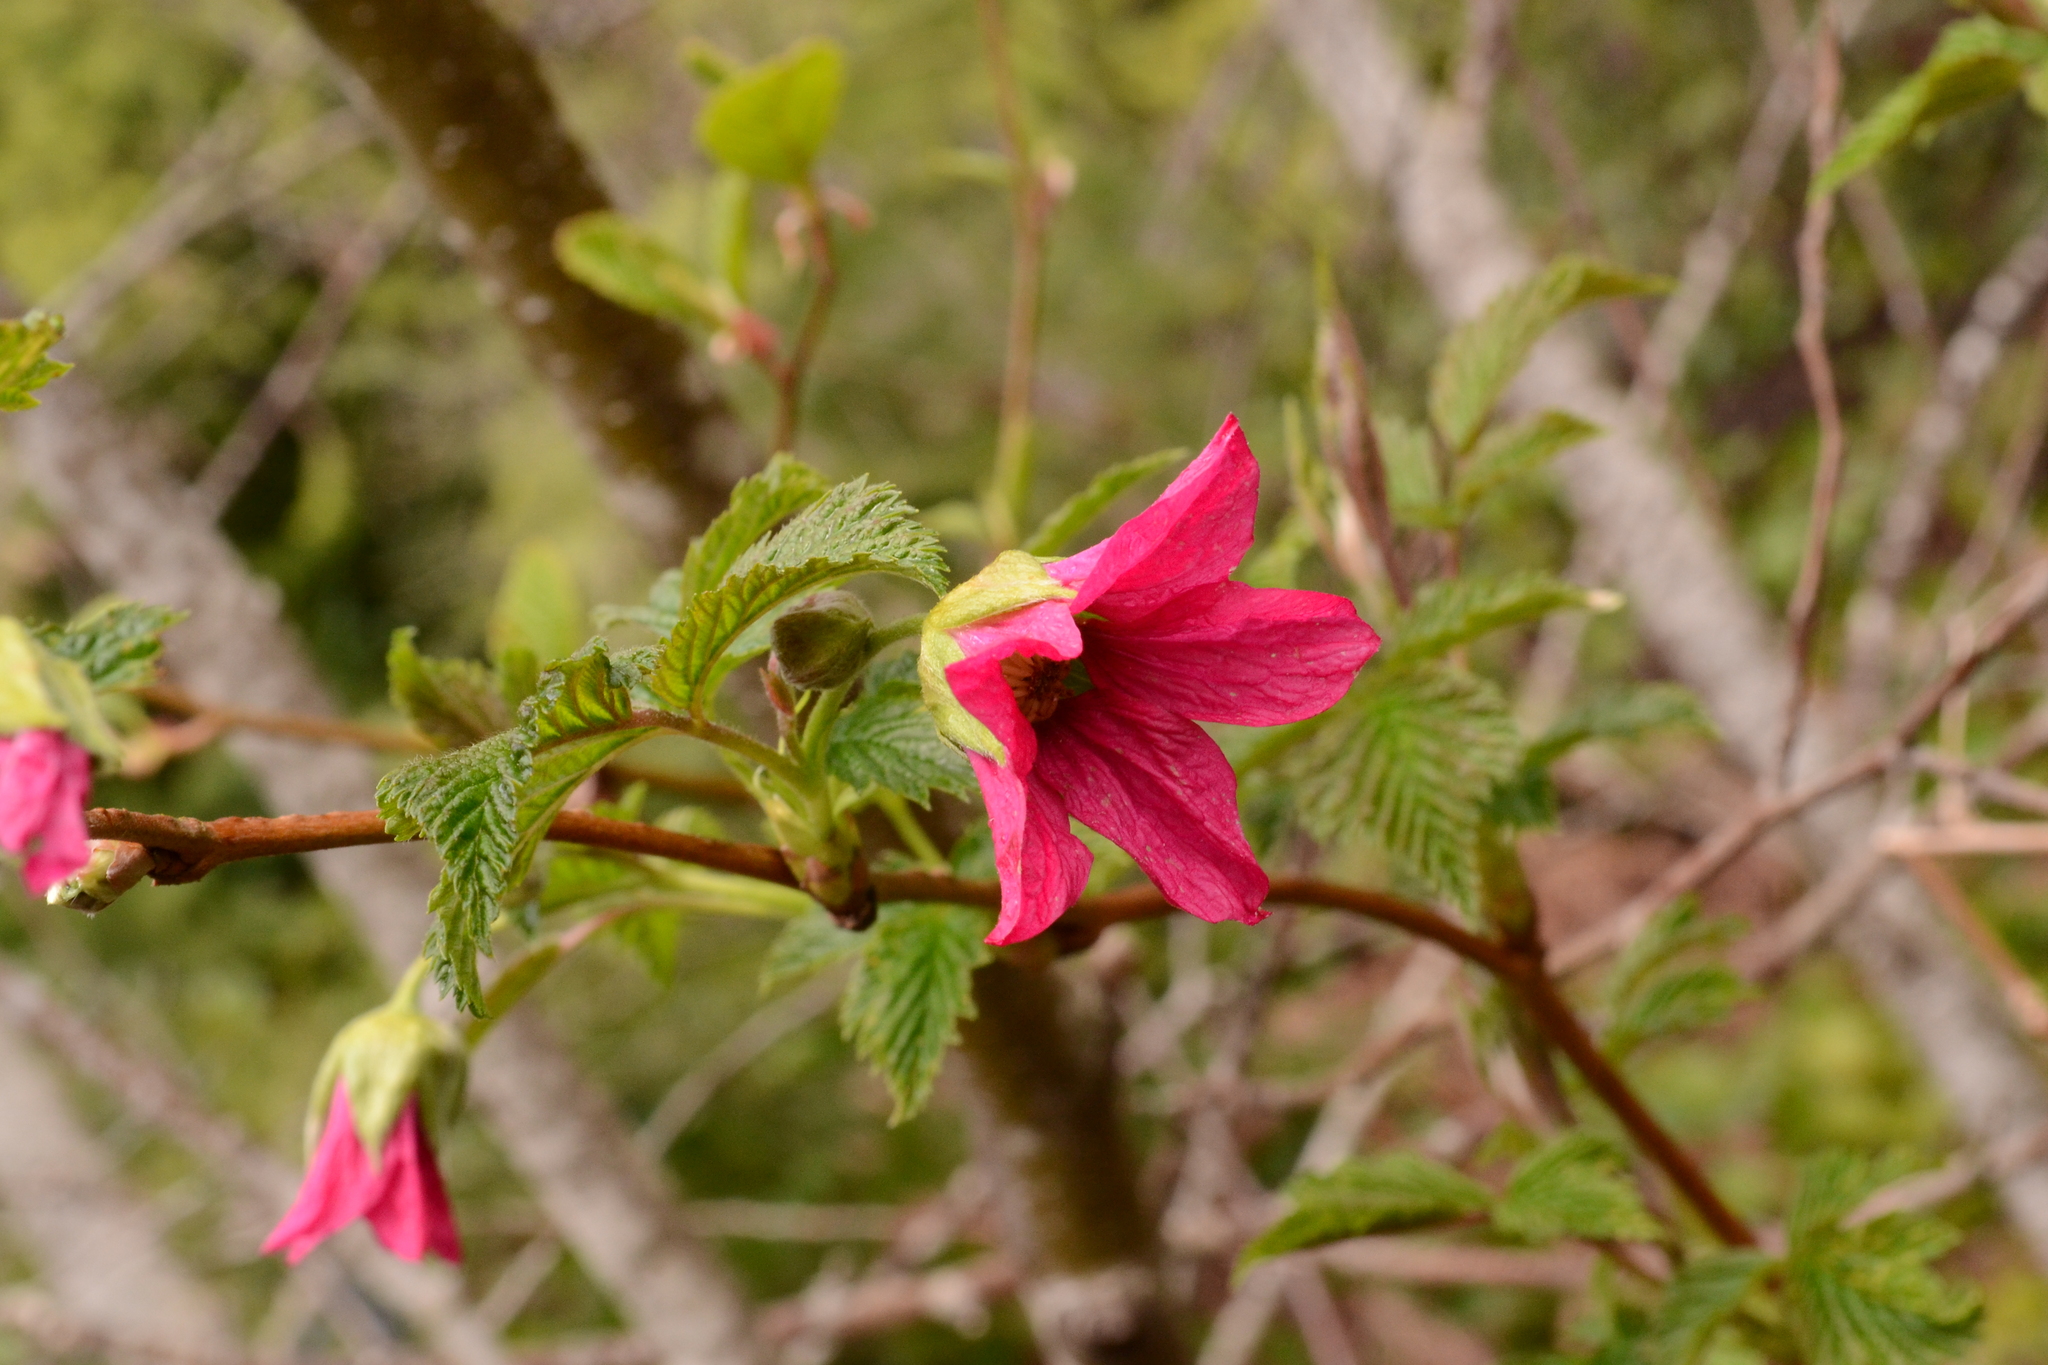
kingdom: Plantae
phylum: Tracheophyta
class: Magnoliopsida
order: Rosales
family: Rosaceae
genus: Rubus
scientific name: Rubus spectabilis
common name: Salmonberry
